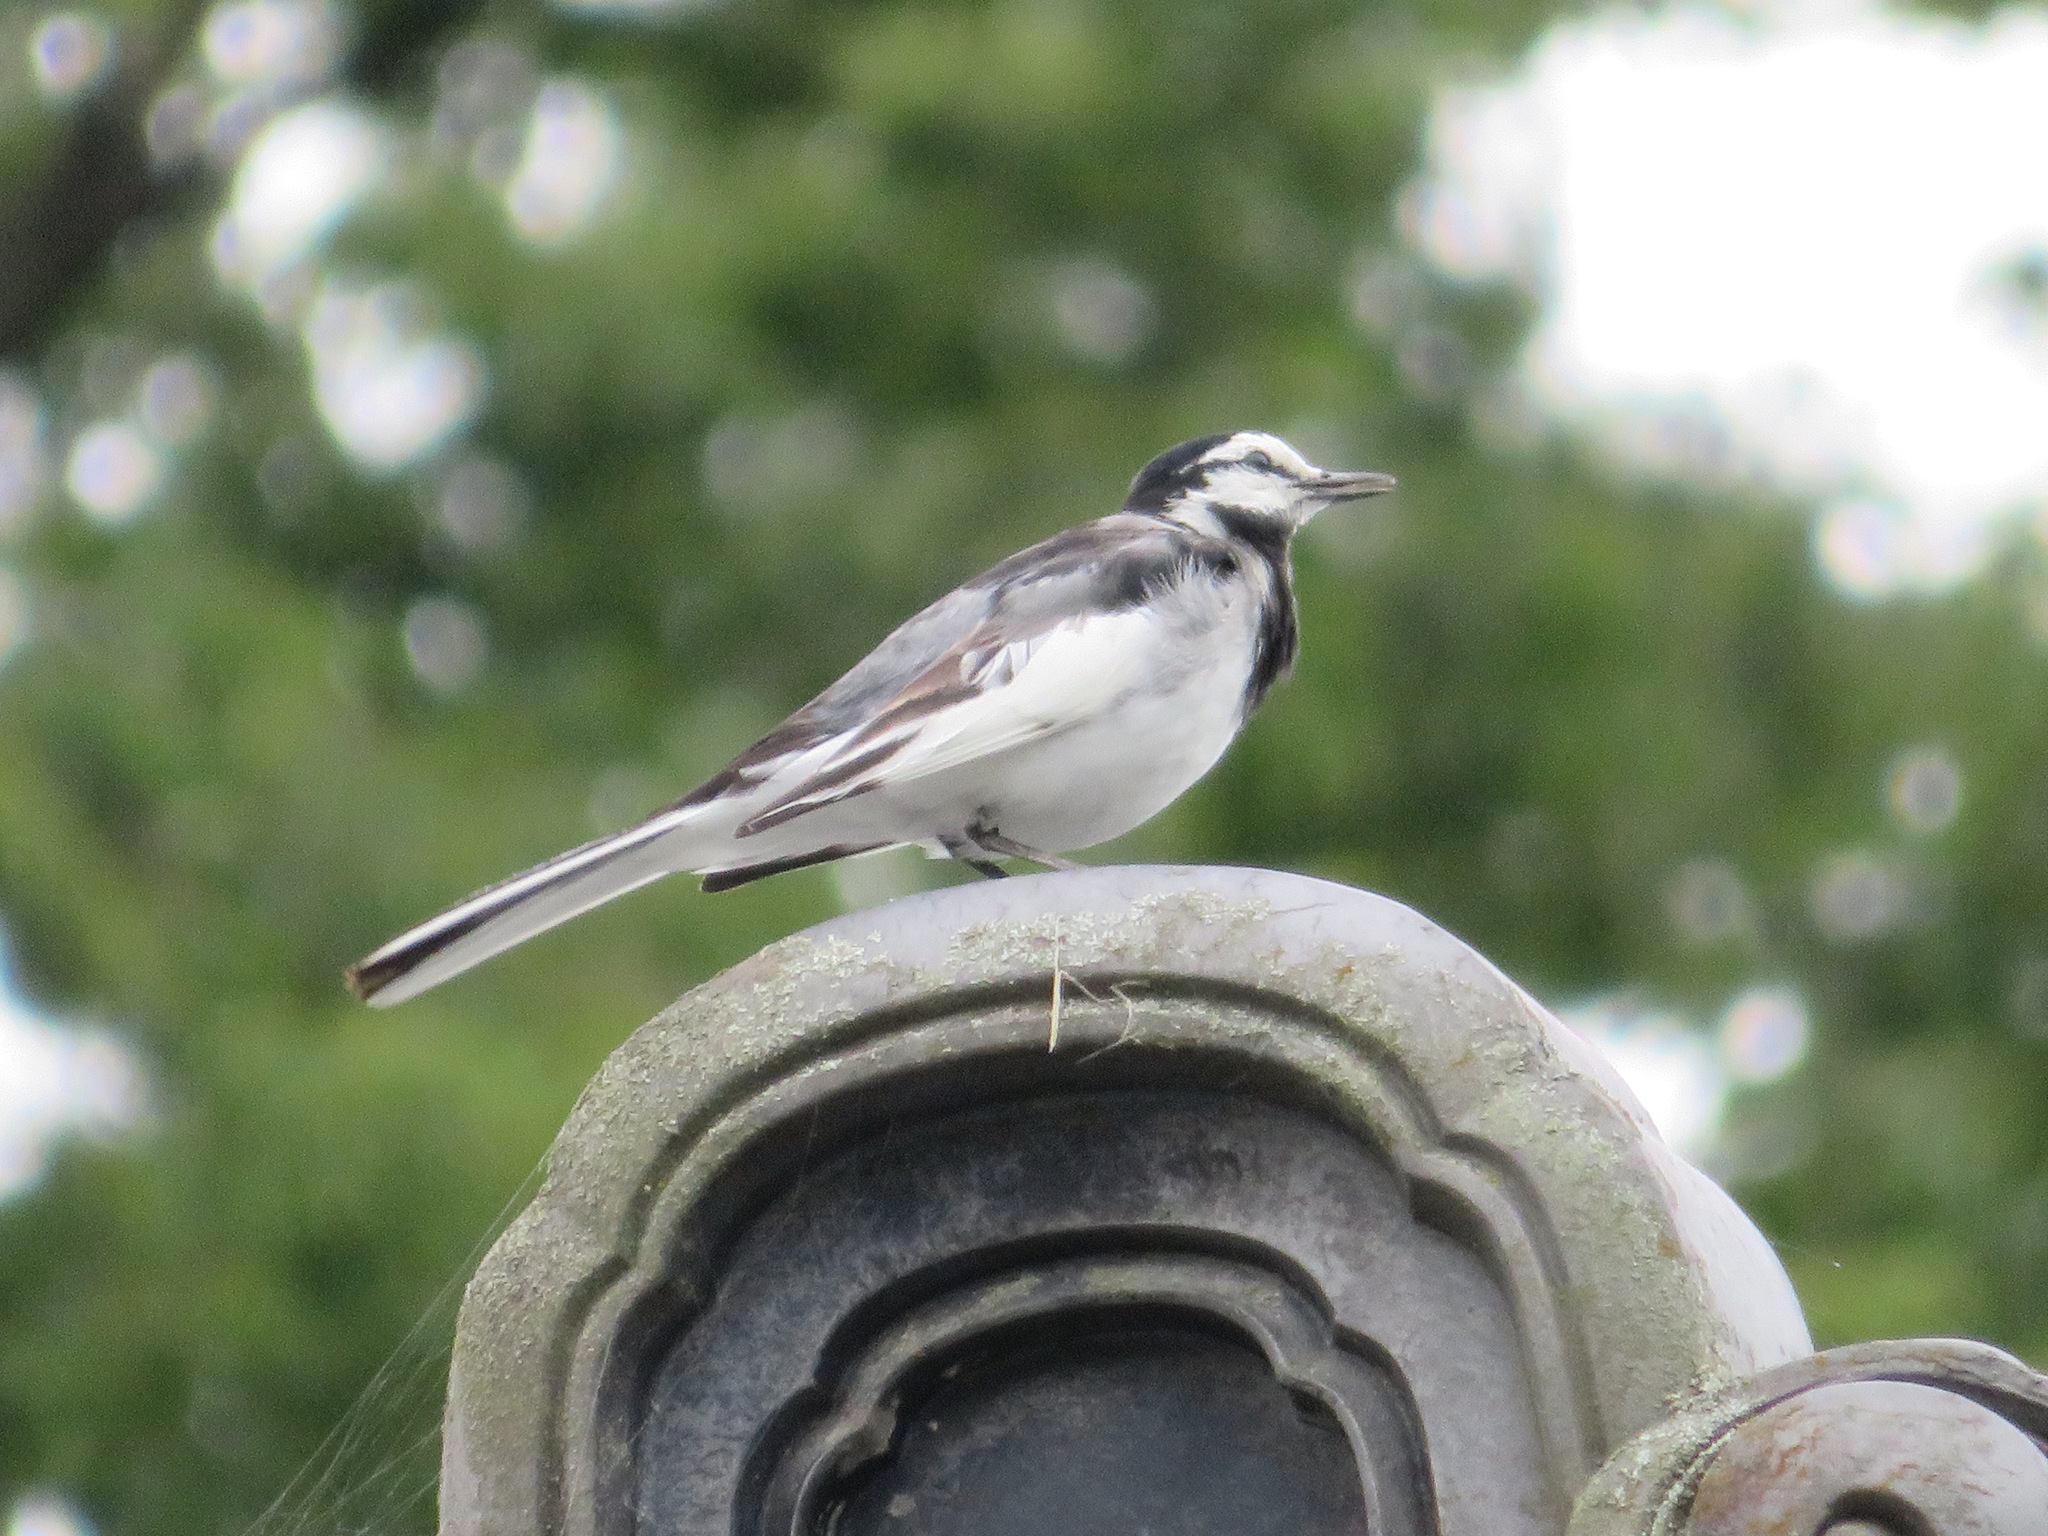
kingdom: Animalia
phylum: Chordata
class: Aves
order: Passeriformes
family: Motacillidae
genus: Motacilla
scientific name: Motacilla alba
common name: White wagtail
